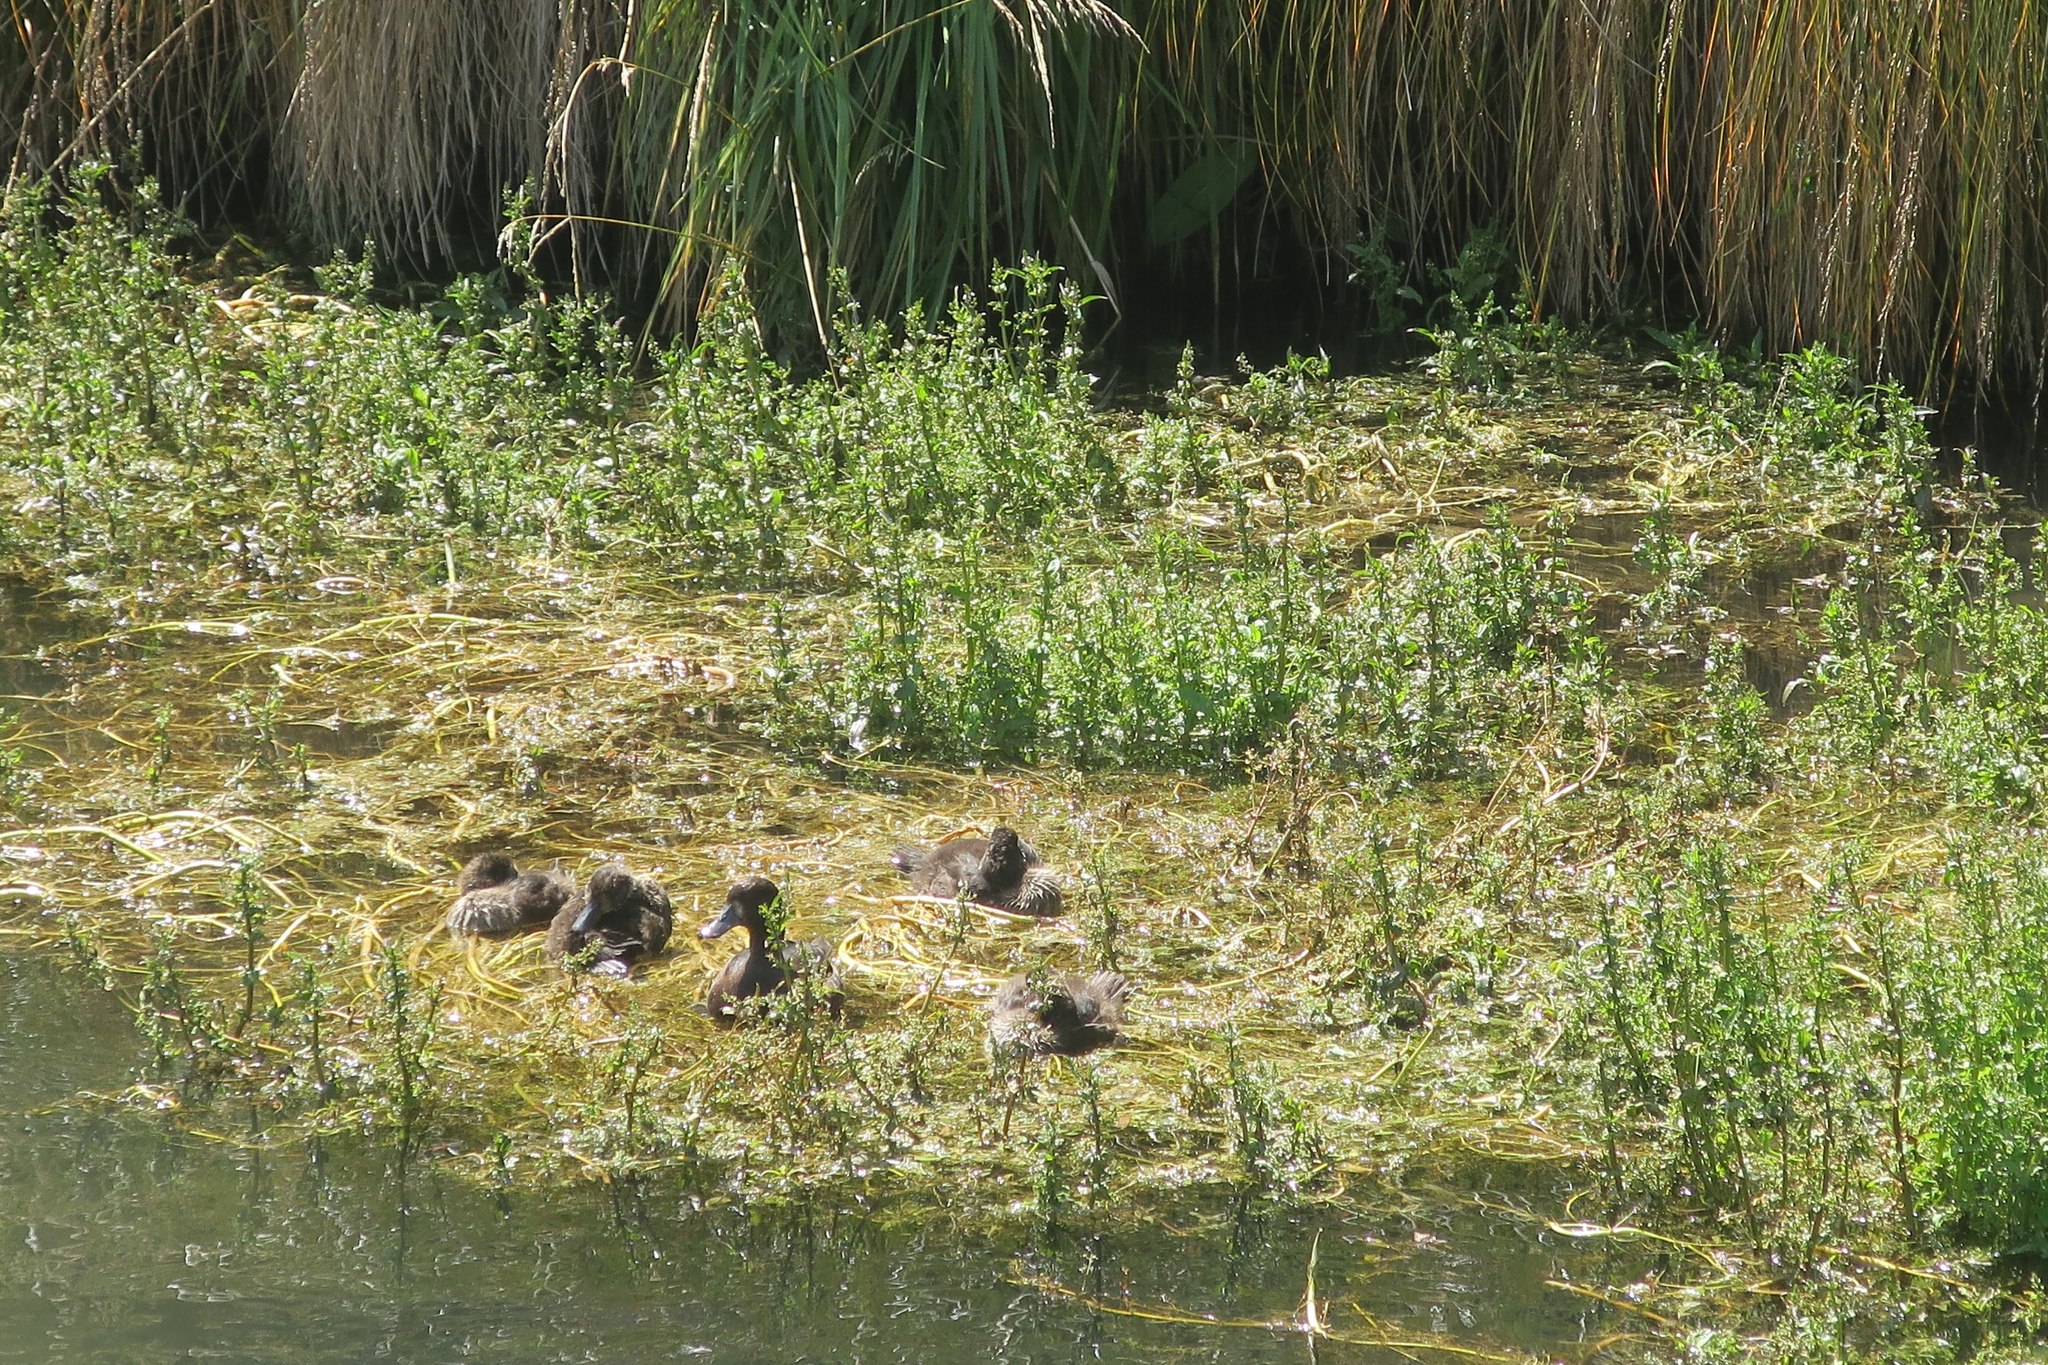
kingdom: Animalia
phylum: Chordata
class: Aves
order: Anseriformes
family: Anatidae
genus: Aythya
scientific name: Aythya novaeseelandiae
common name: New zealand scaup
